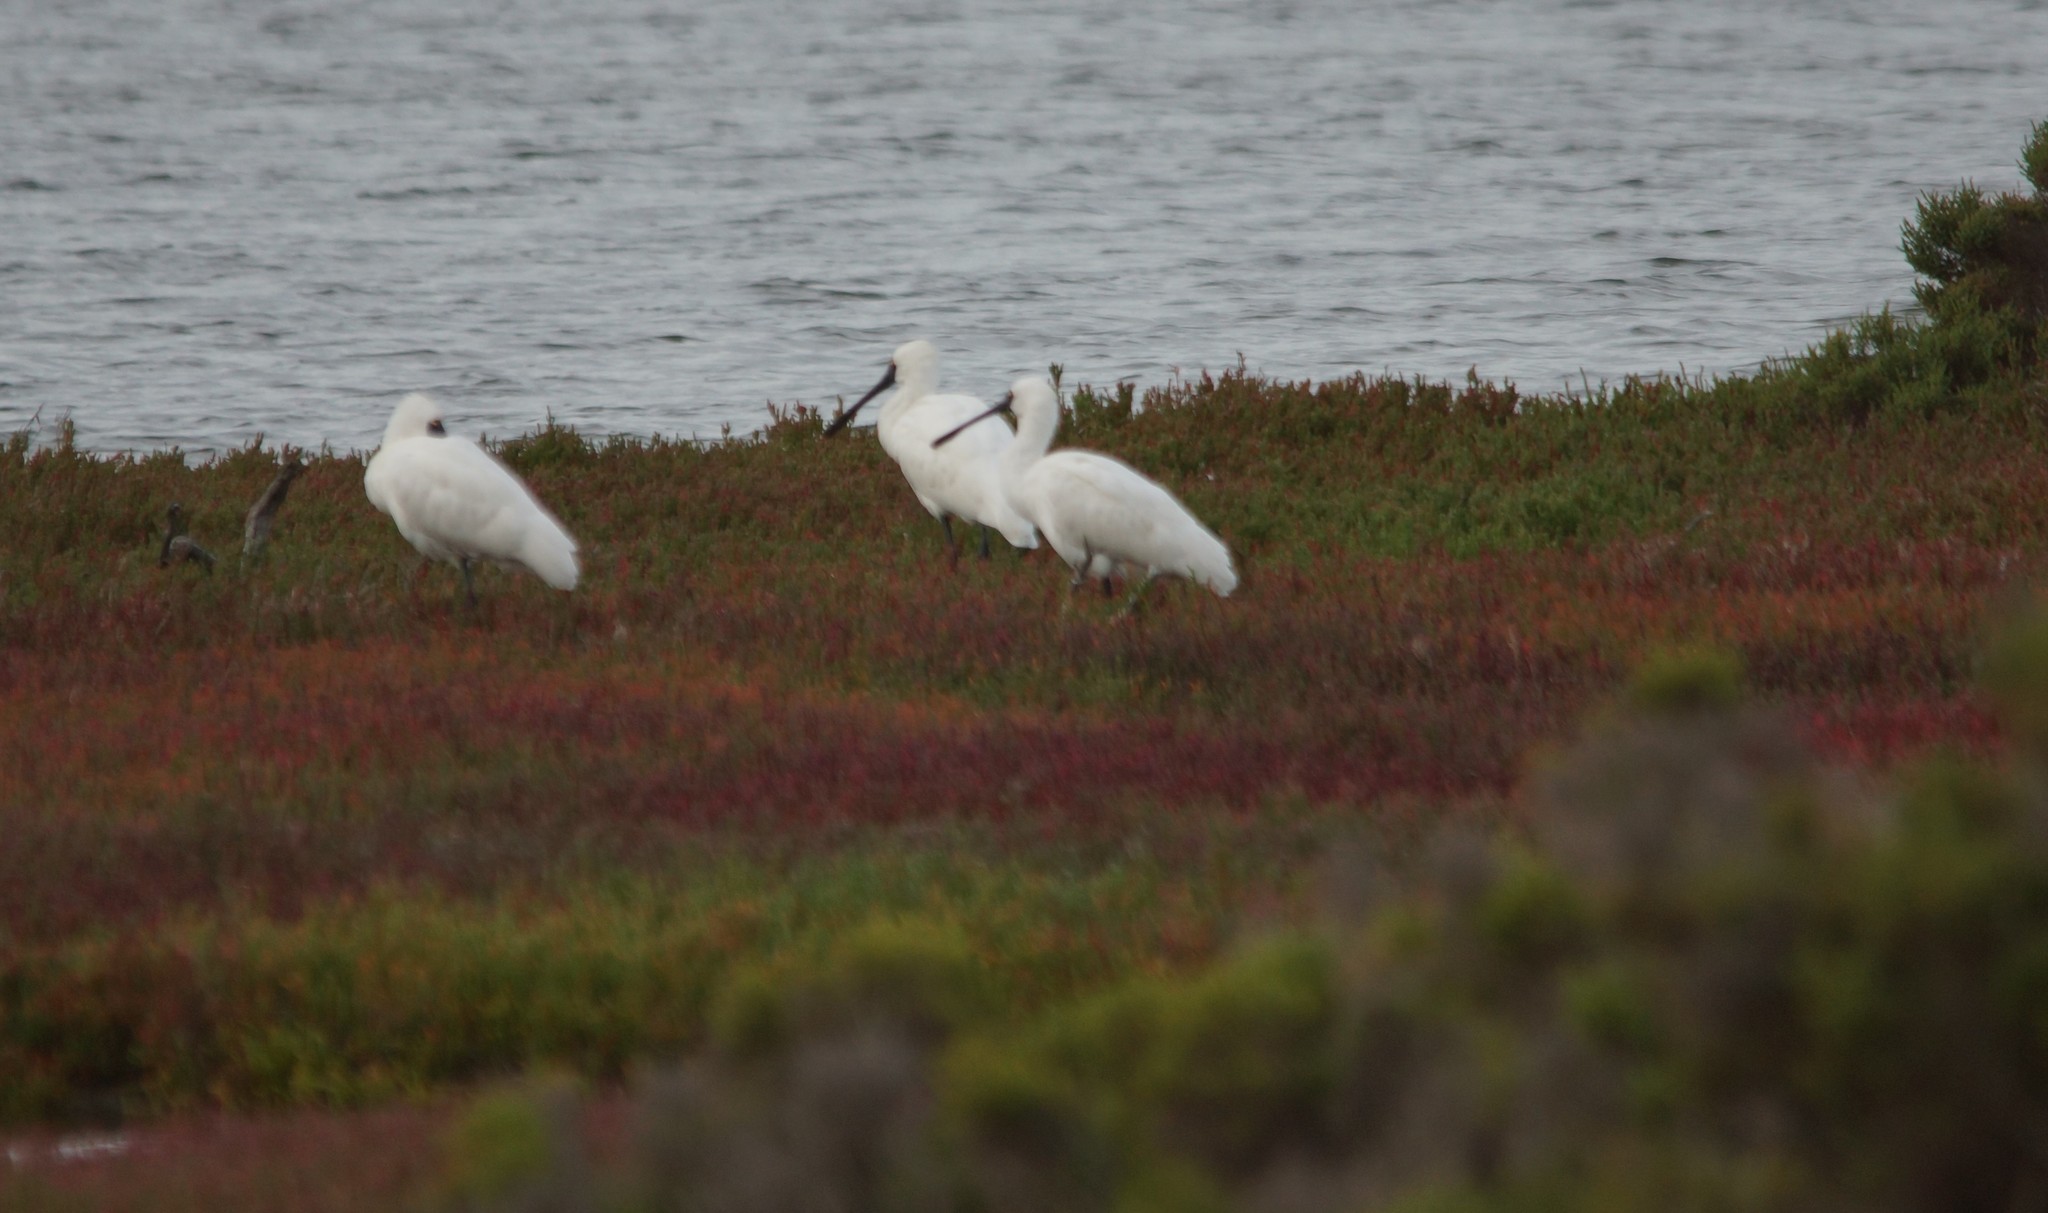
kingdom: Animalia
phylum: Chordata
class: Aves
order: Pelecaniformes
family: Threskiornithidae
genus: Platalea
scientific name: Platalea regia
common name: Royal spoonbill
